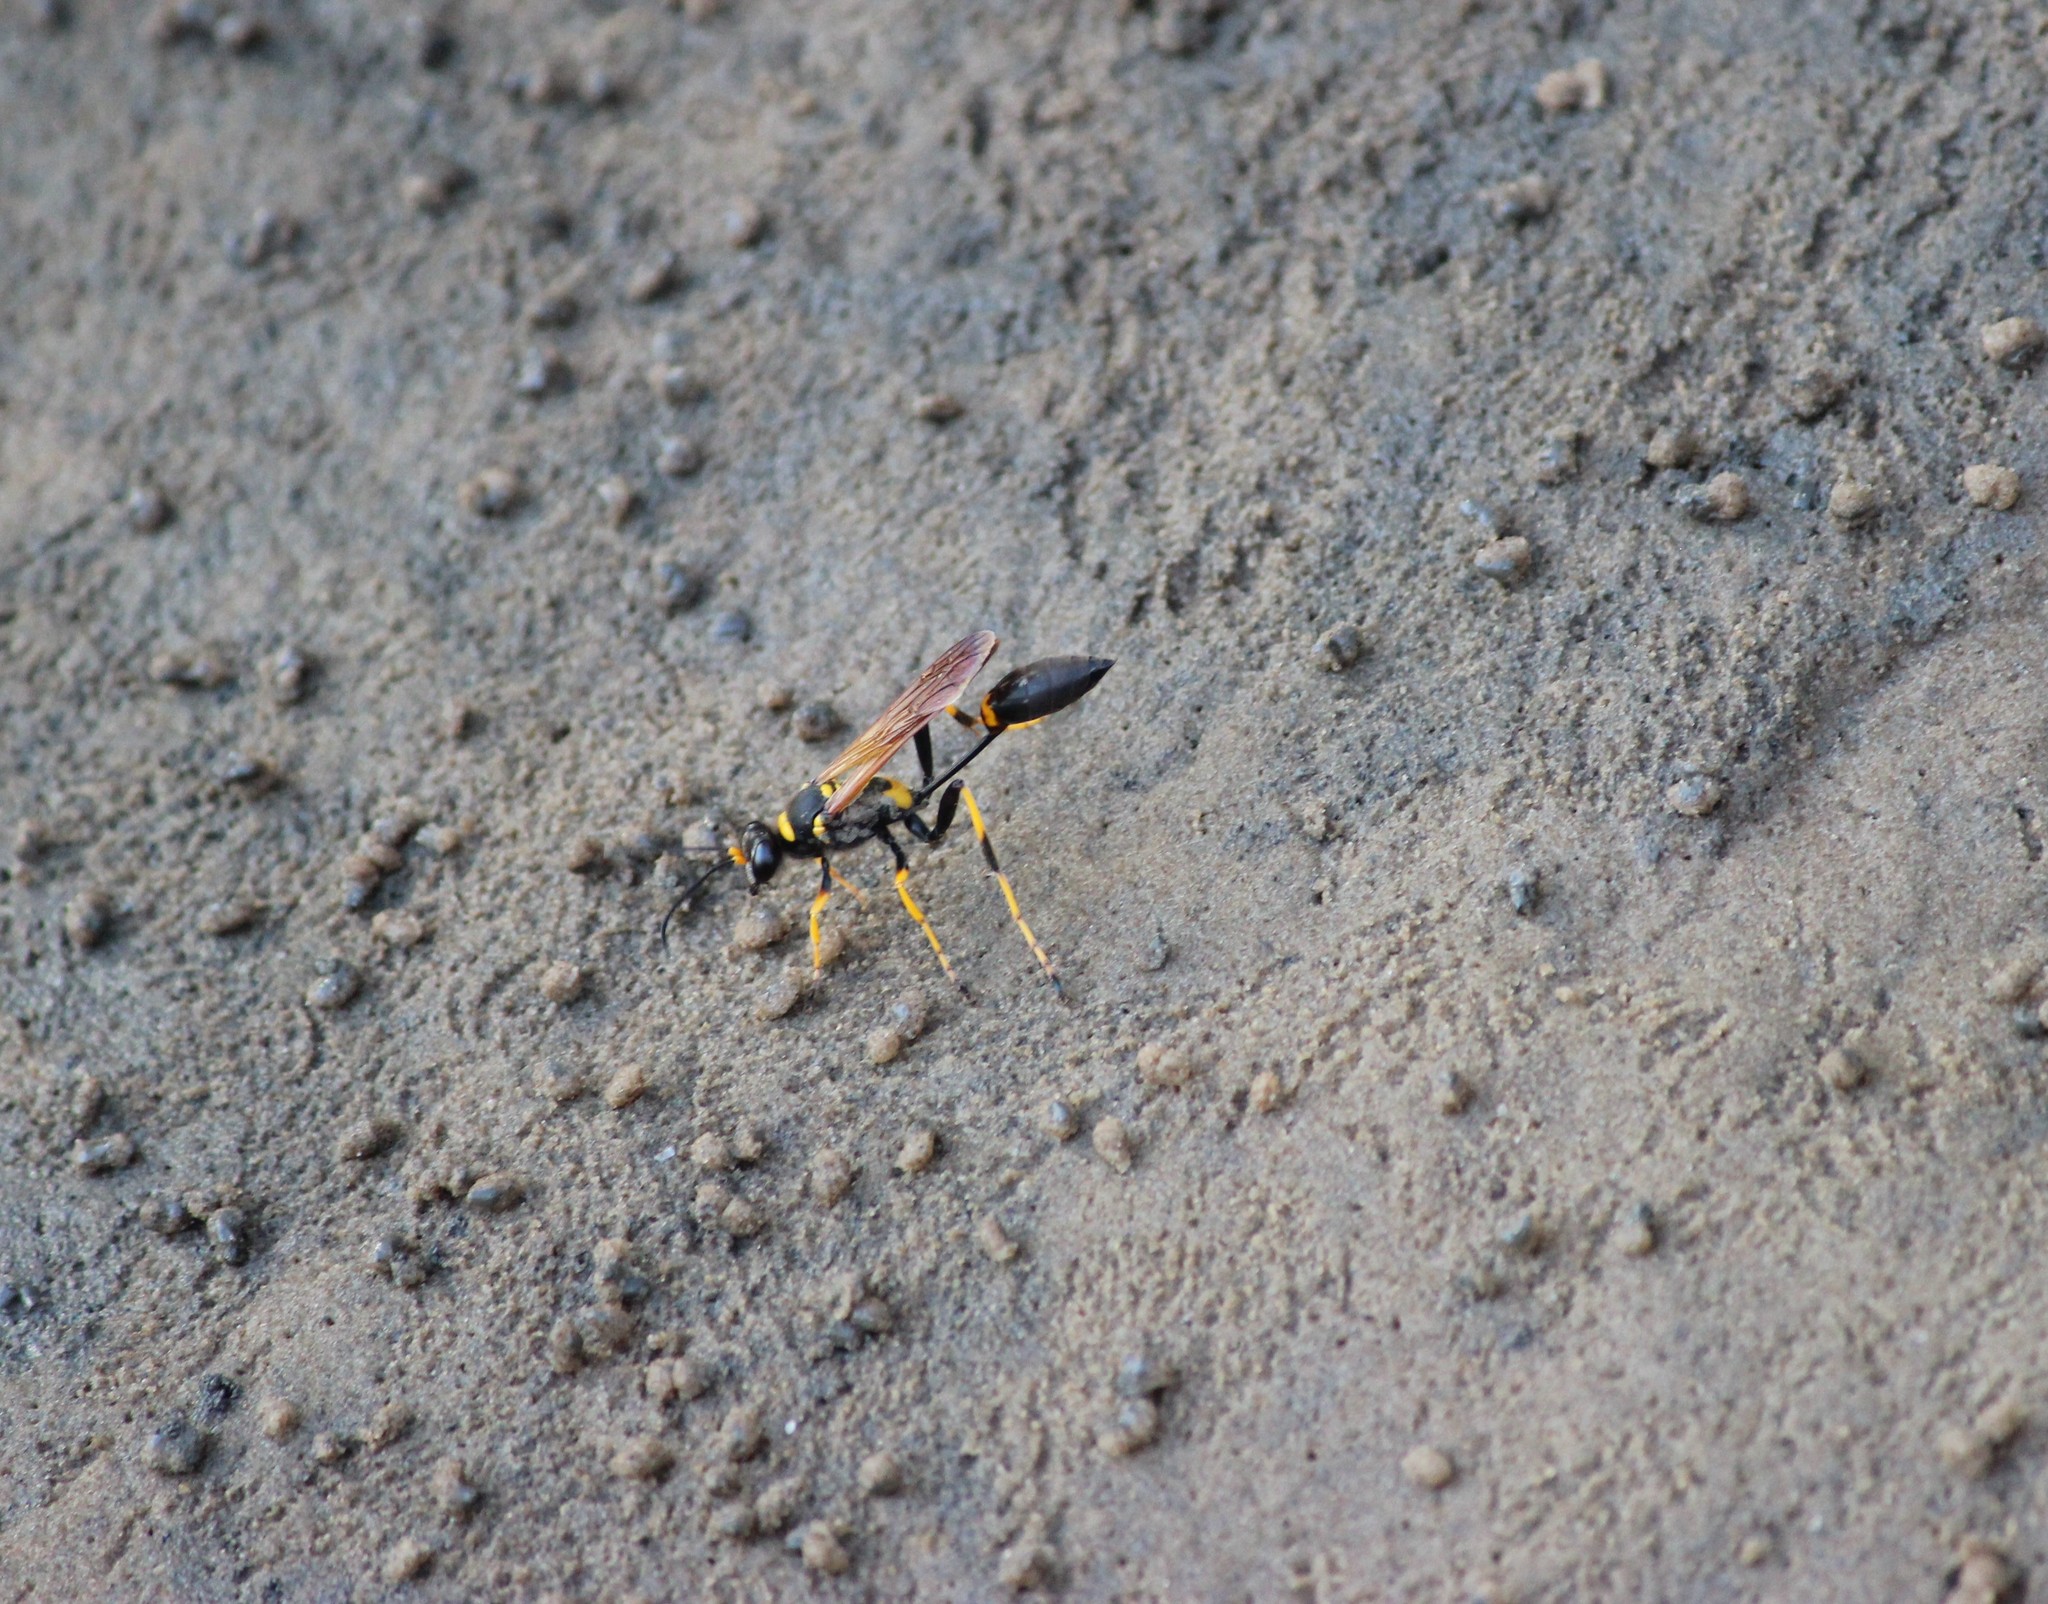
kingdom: Animalia
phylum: Arthropoda
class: Insecta
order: Hymenoptera
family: Sphecidae
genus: Sceliphron
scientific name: Sceliphron caementarium
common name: Mud dauber
